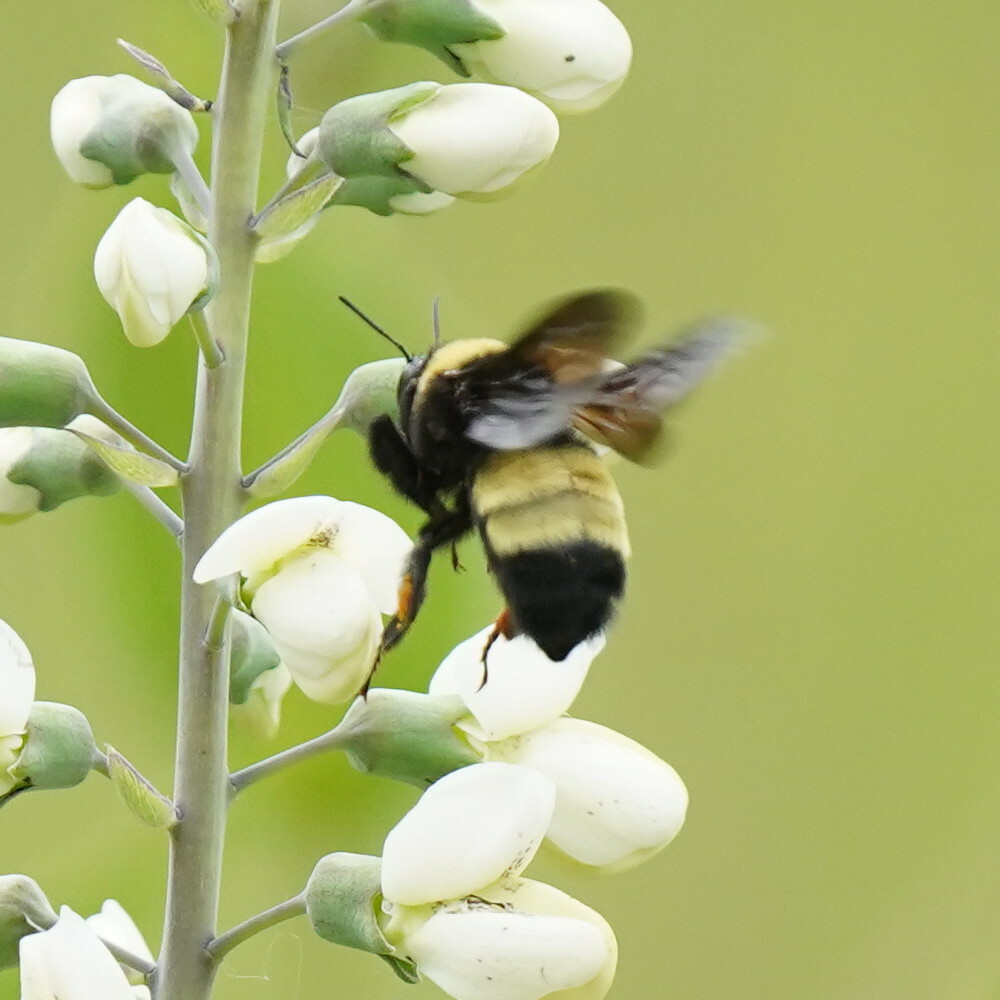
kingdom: Animalia
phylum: Arthropoda
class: Insecta
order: Hymenoptera
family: Apidae
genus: Bombus
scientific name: Bombus auricomus
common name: Black and gold bumble bee
